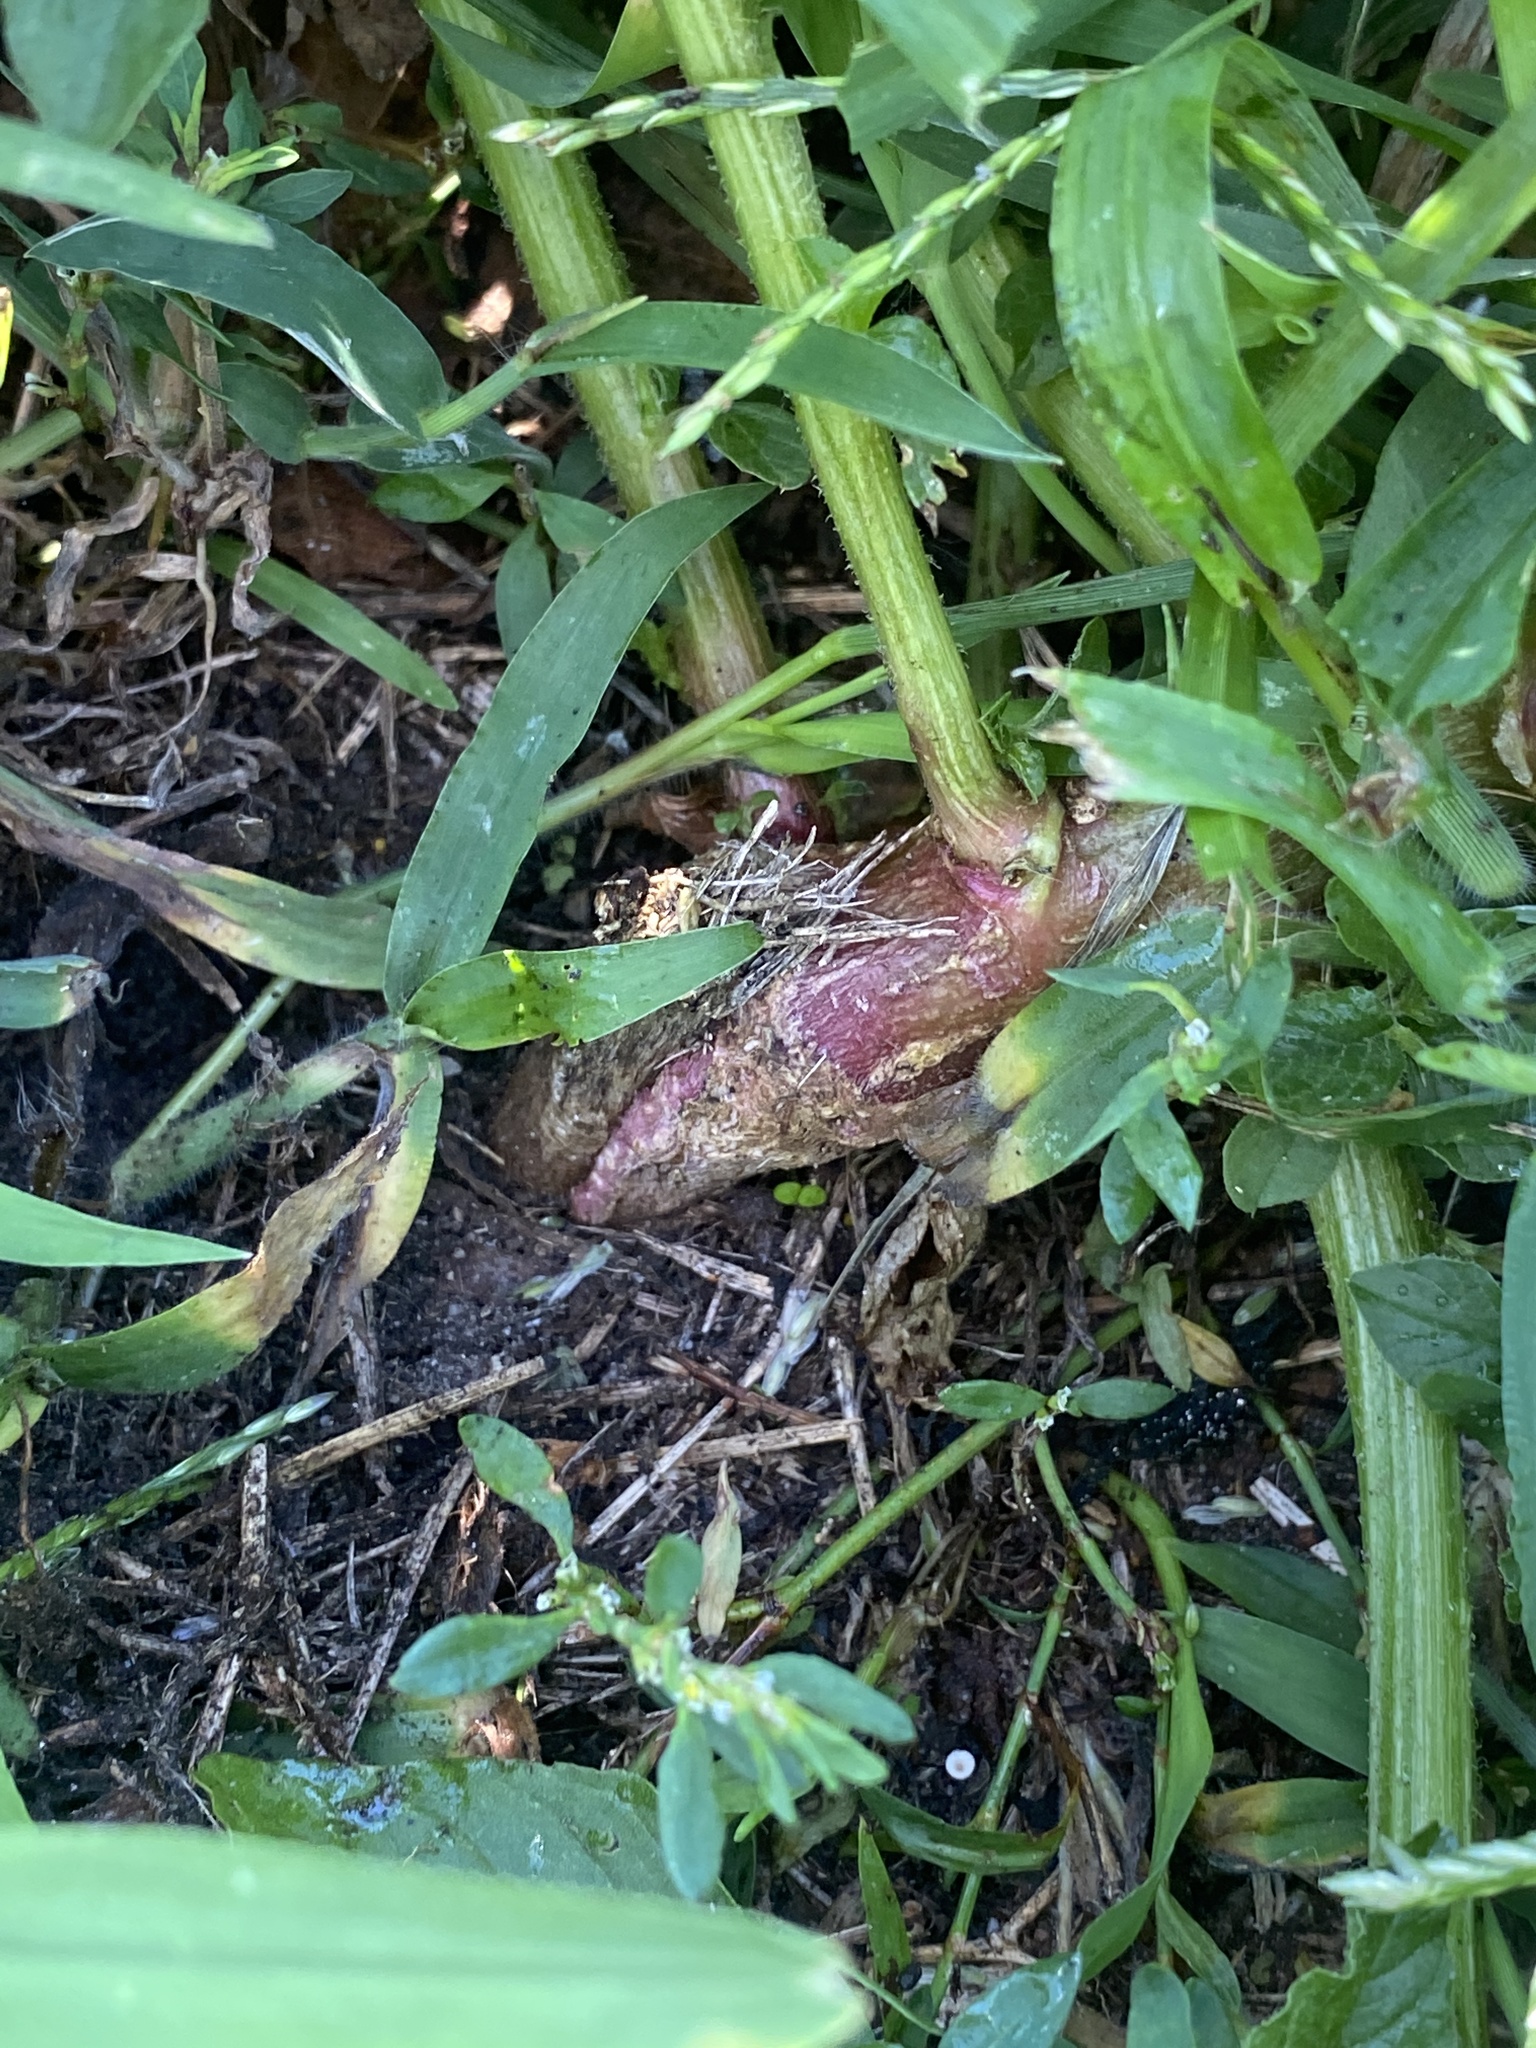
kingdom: Plantae
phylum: Tracheophyta
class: Magnoliopsida
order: Caryophyllales
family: Amaranthaceae
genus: Amaranthus
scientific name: Amaranthus retroflexus
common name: Redroot amaranth
